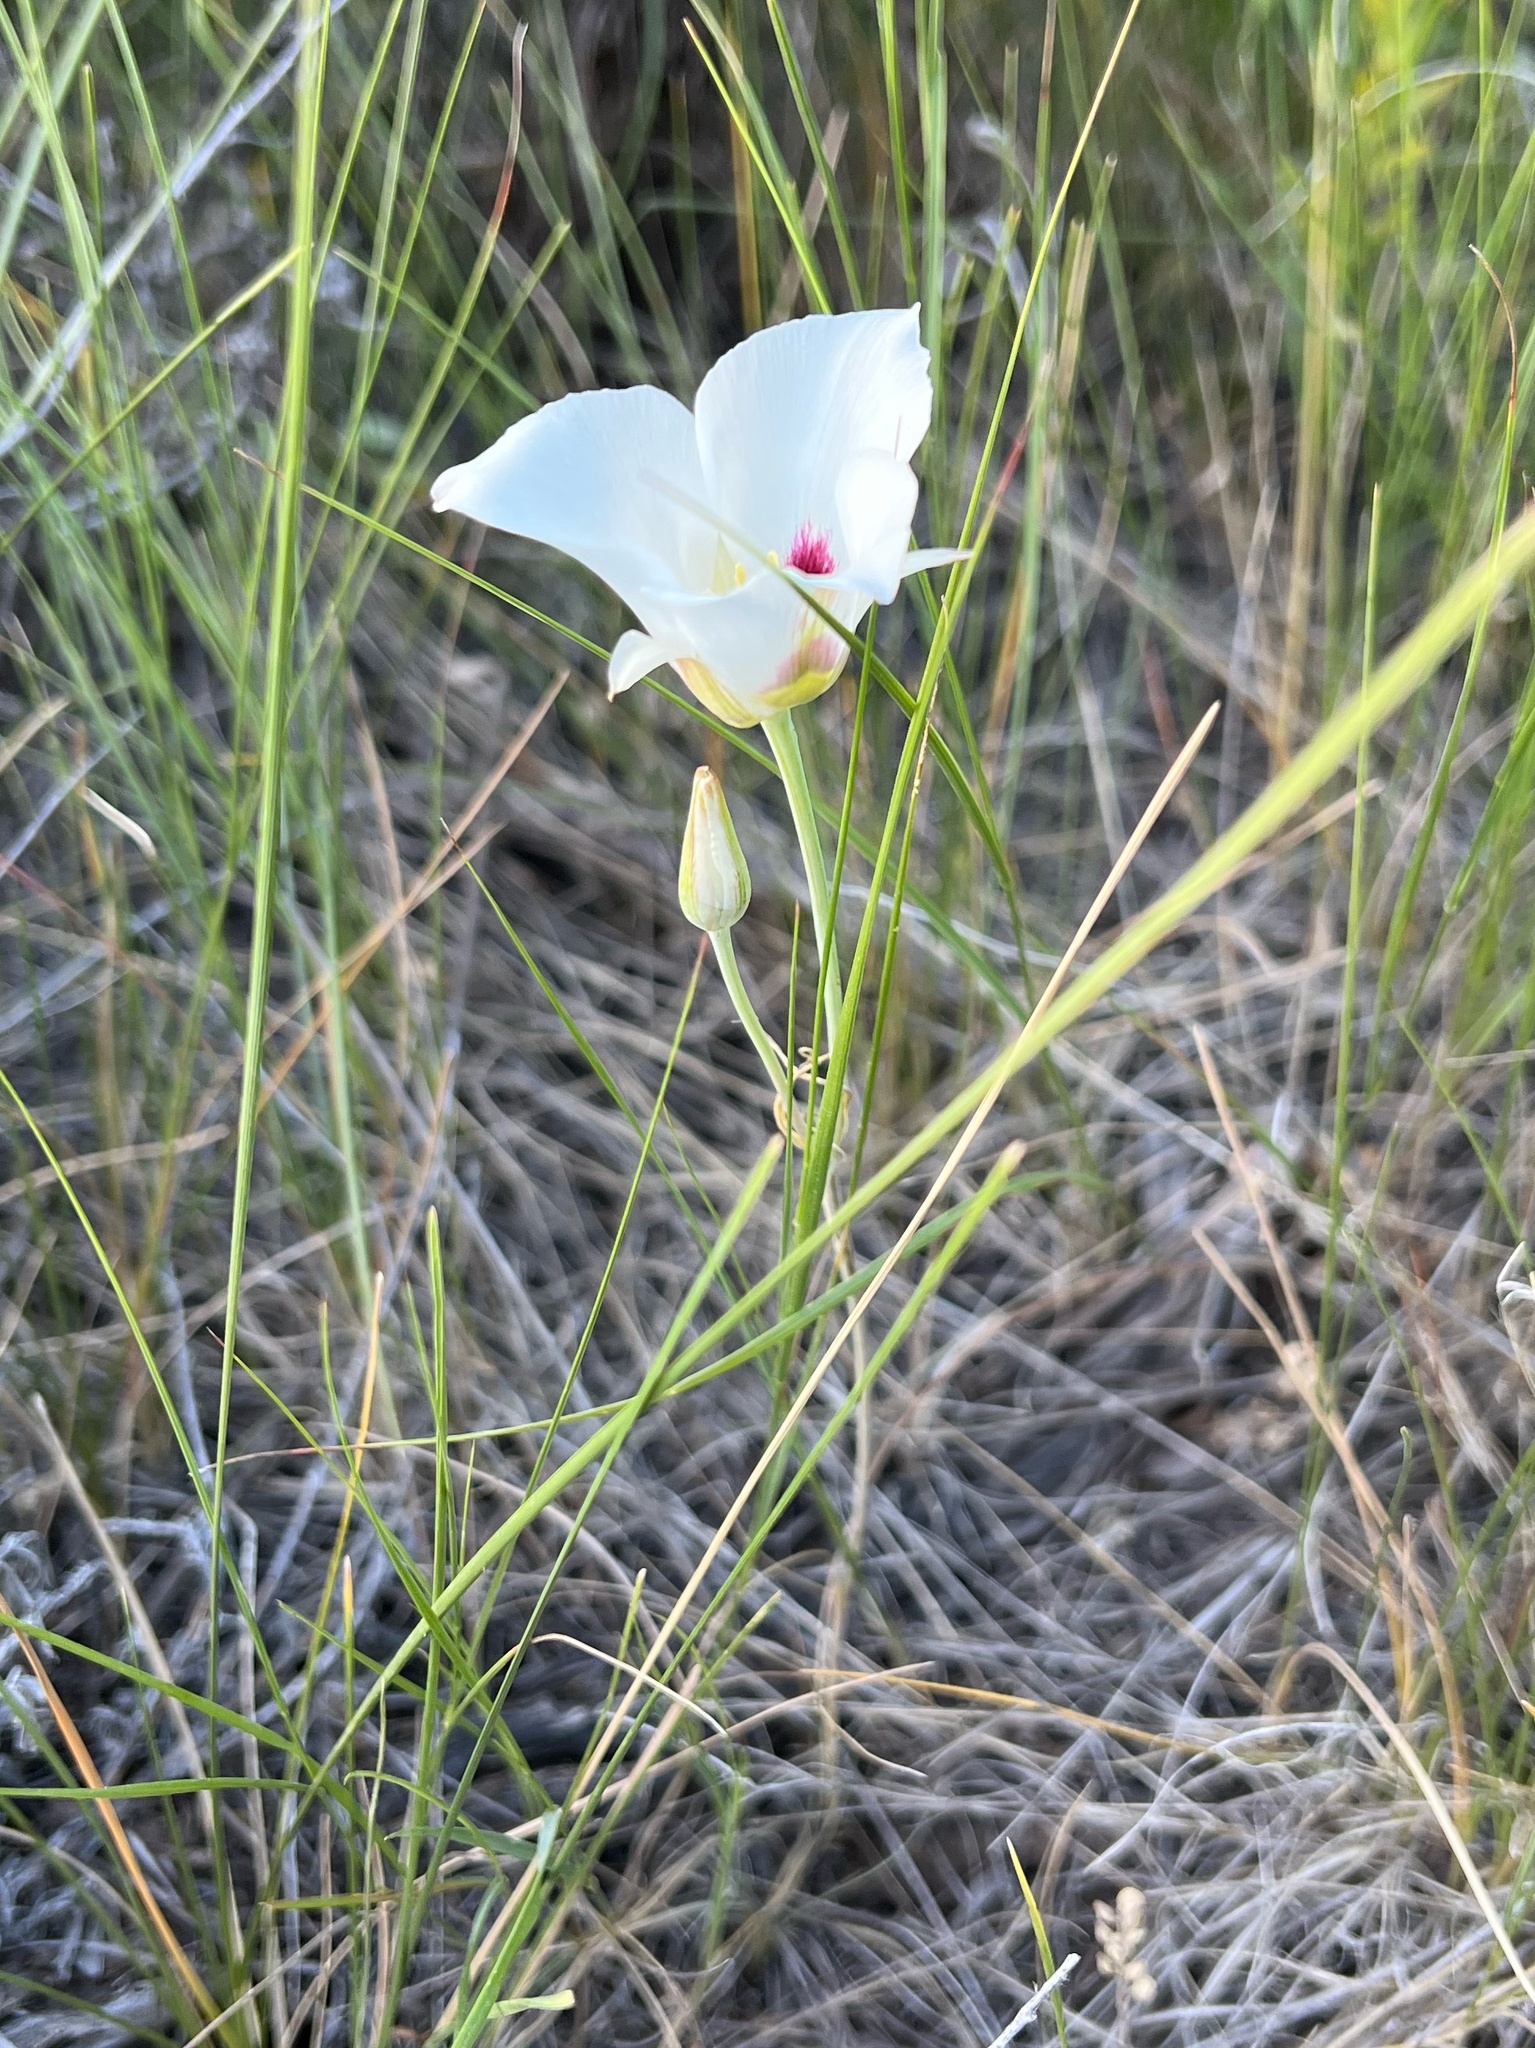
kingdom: Plantae
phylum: Tracheophyta
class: Liliopsida
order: Liliales
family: Liliaceae
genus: Calochortus
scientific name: Calochortus nuttallii
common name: Sego-lily
